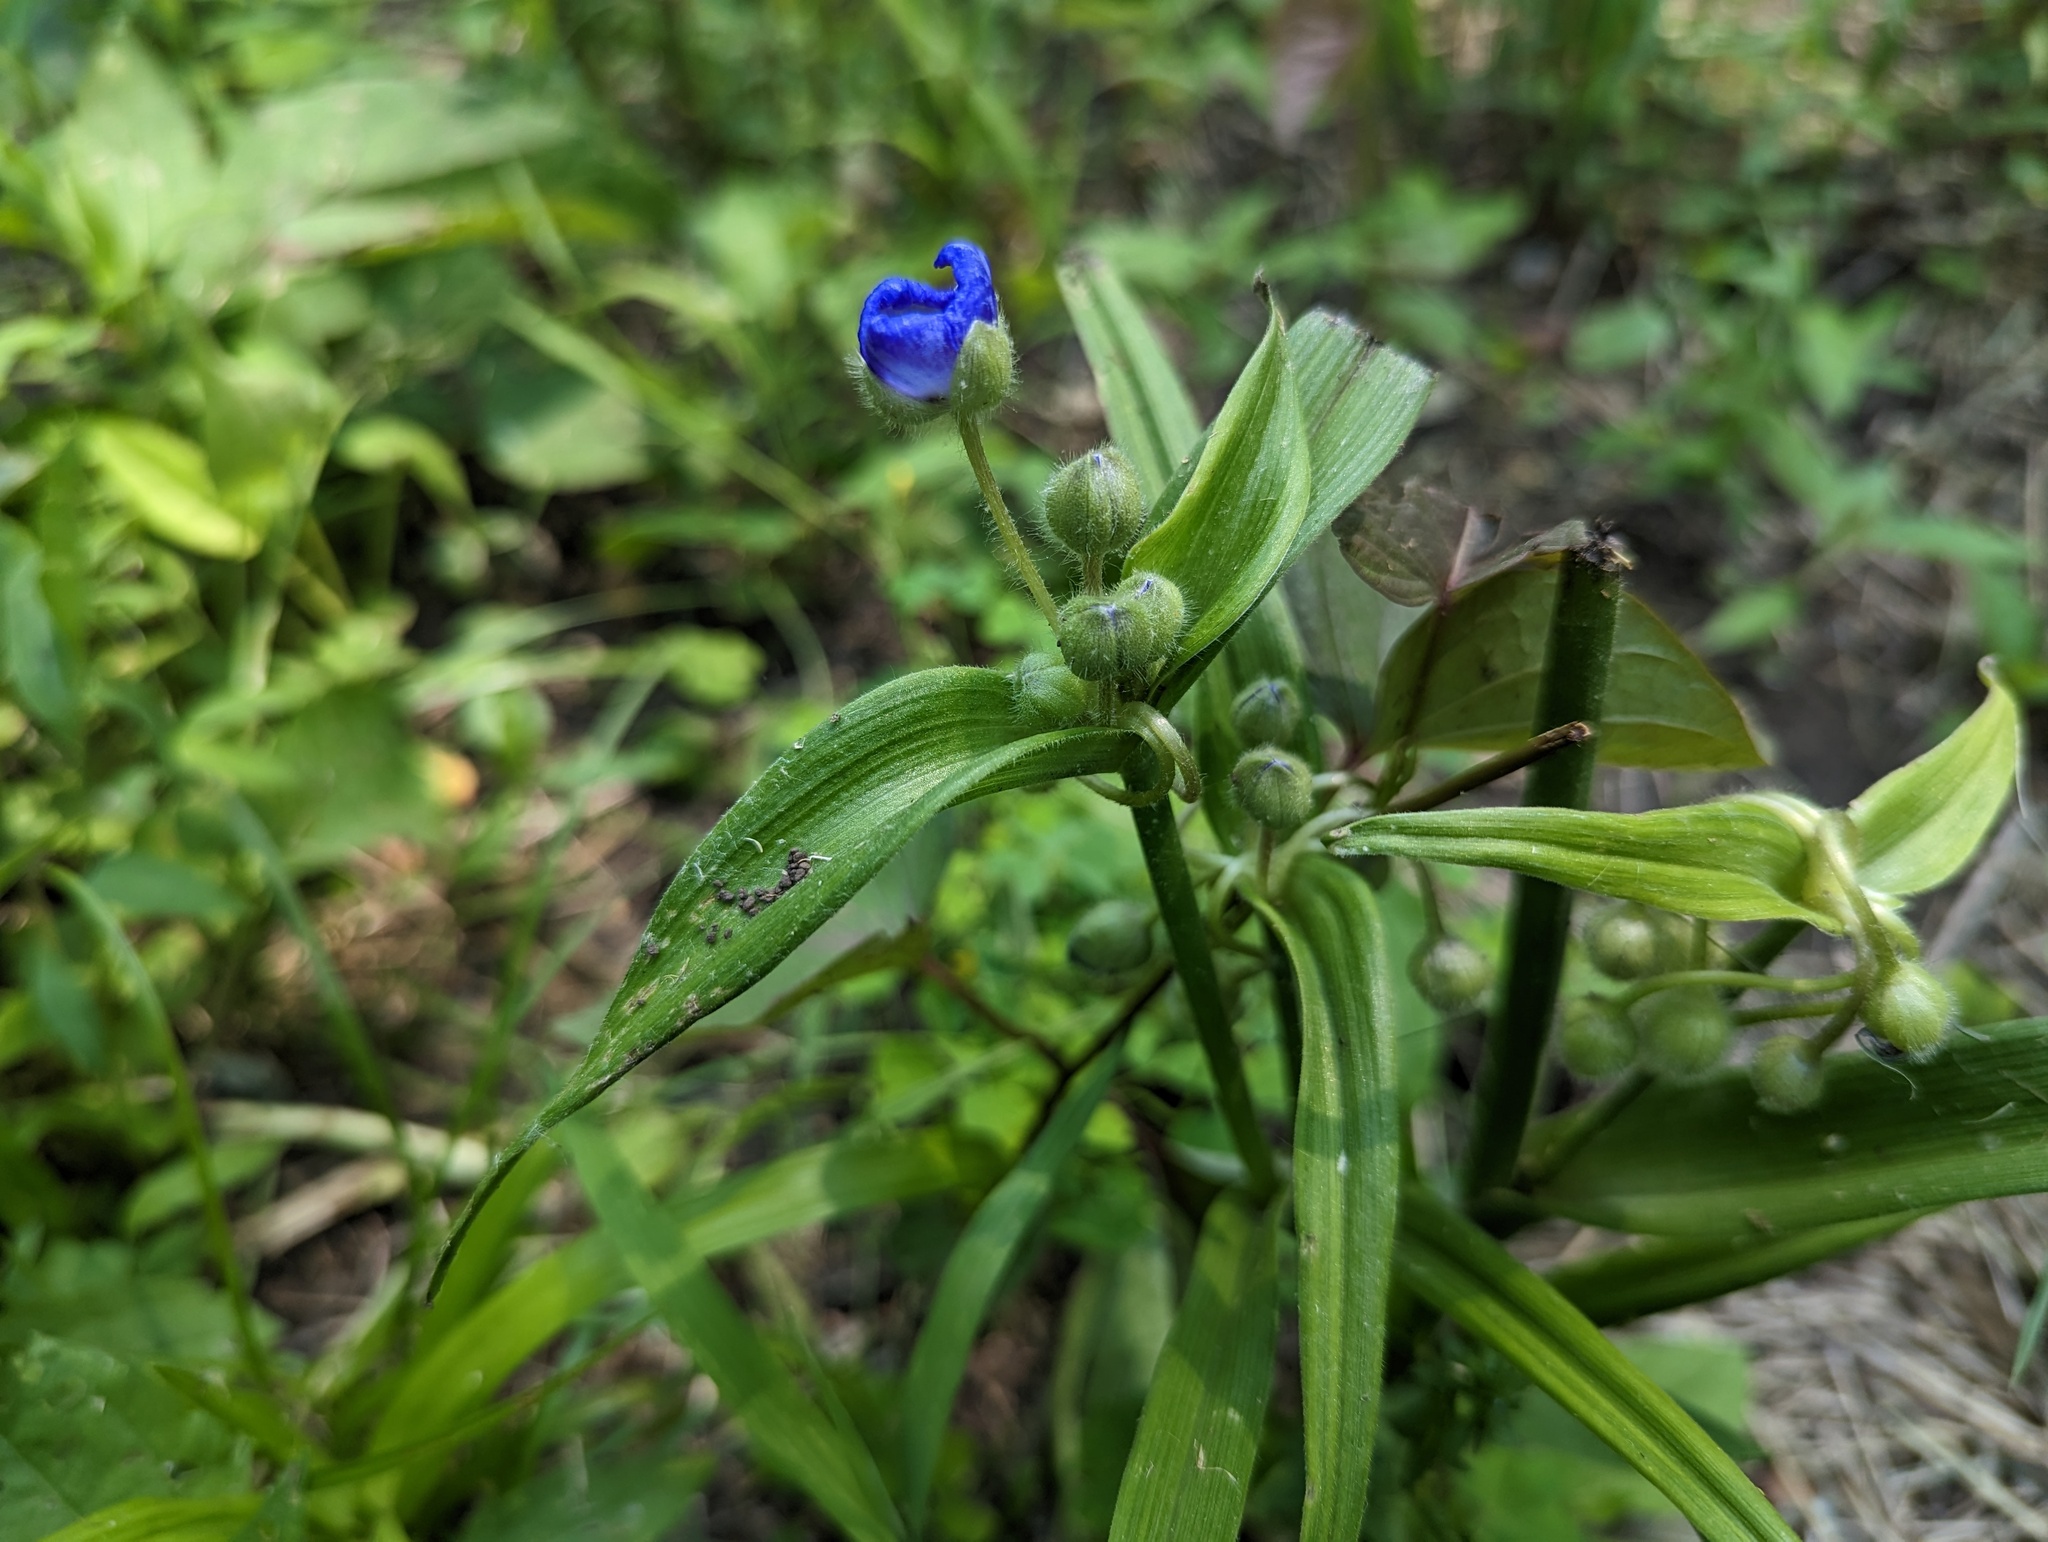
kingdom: Plantae
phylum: Tracheophyta
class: Liliopsida
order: Commelinales
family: Commelinaceae
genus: Tradescantia
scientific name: Tradescantia virginiana
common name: Spiderwort
